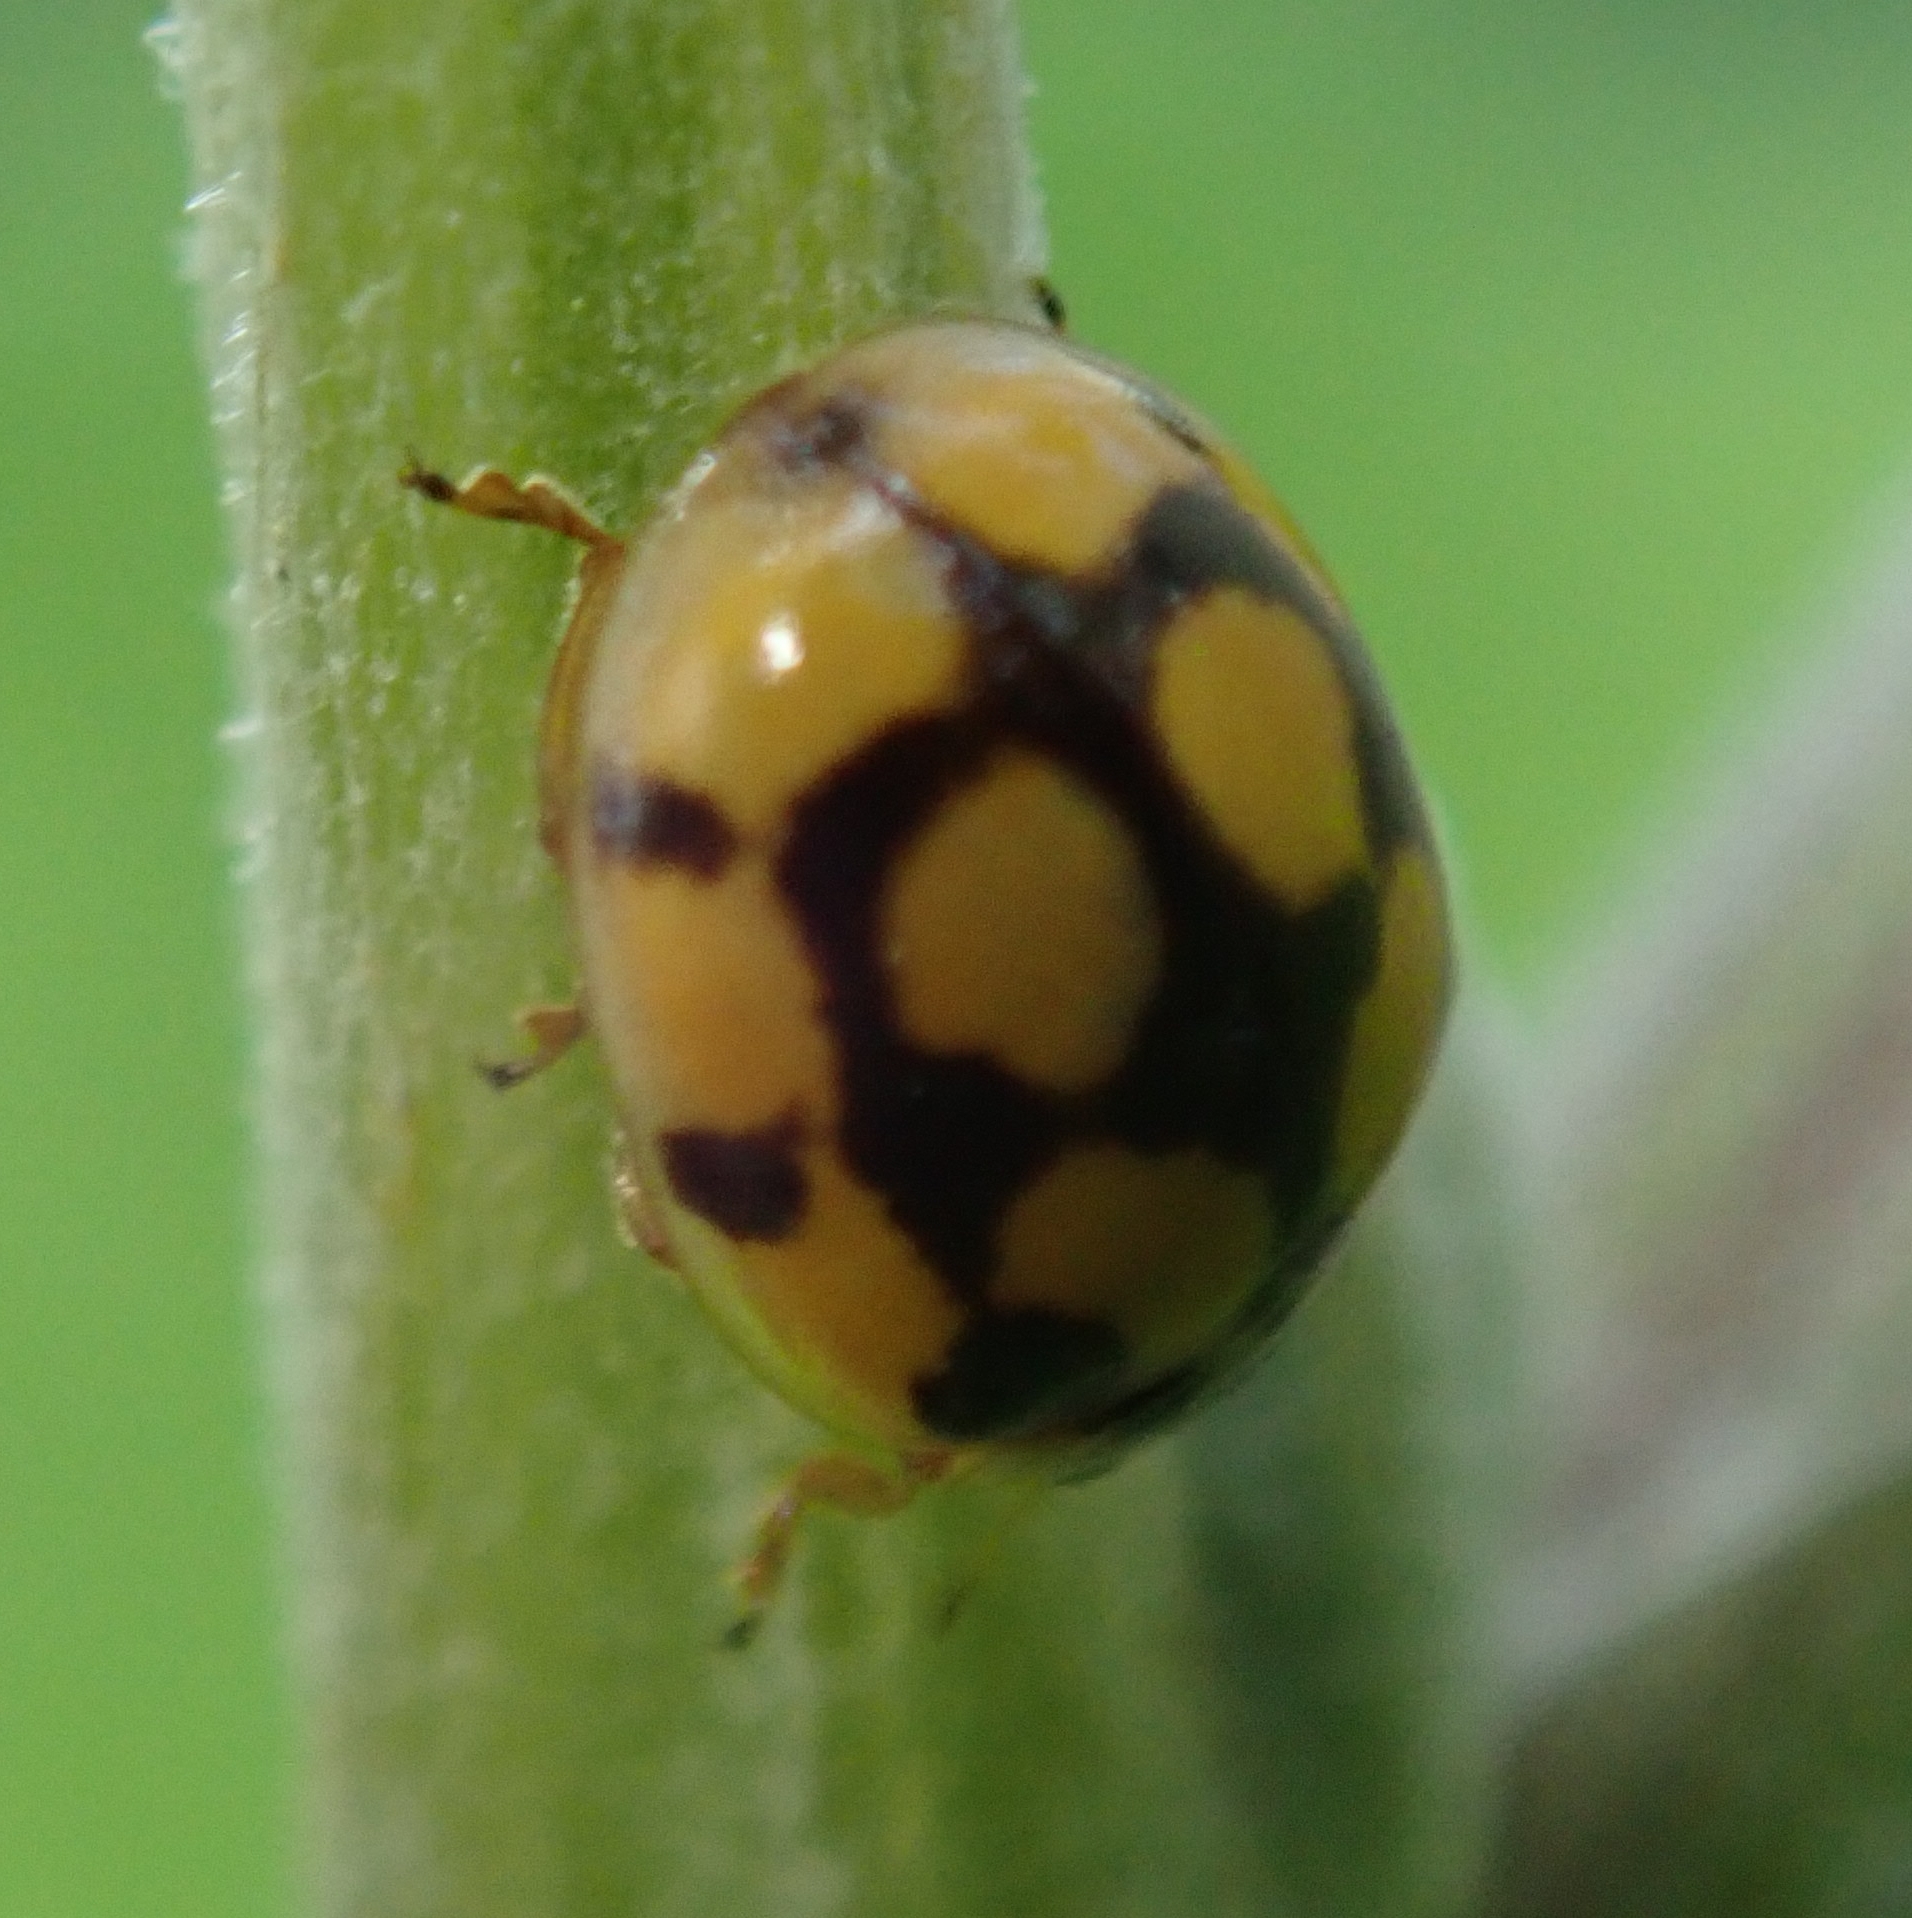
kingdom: Animalia
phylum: Arthropoda
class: Insecta
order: Coleoptera
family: Coccinellidae
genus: Adalia
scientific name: Adalia decempunctata
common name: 10-spot ladybird
